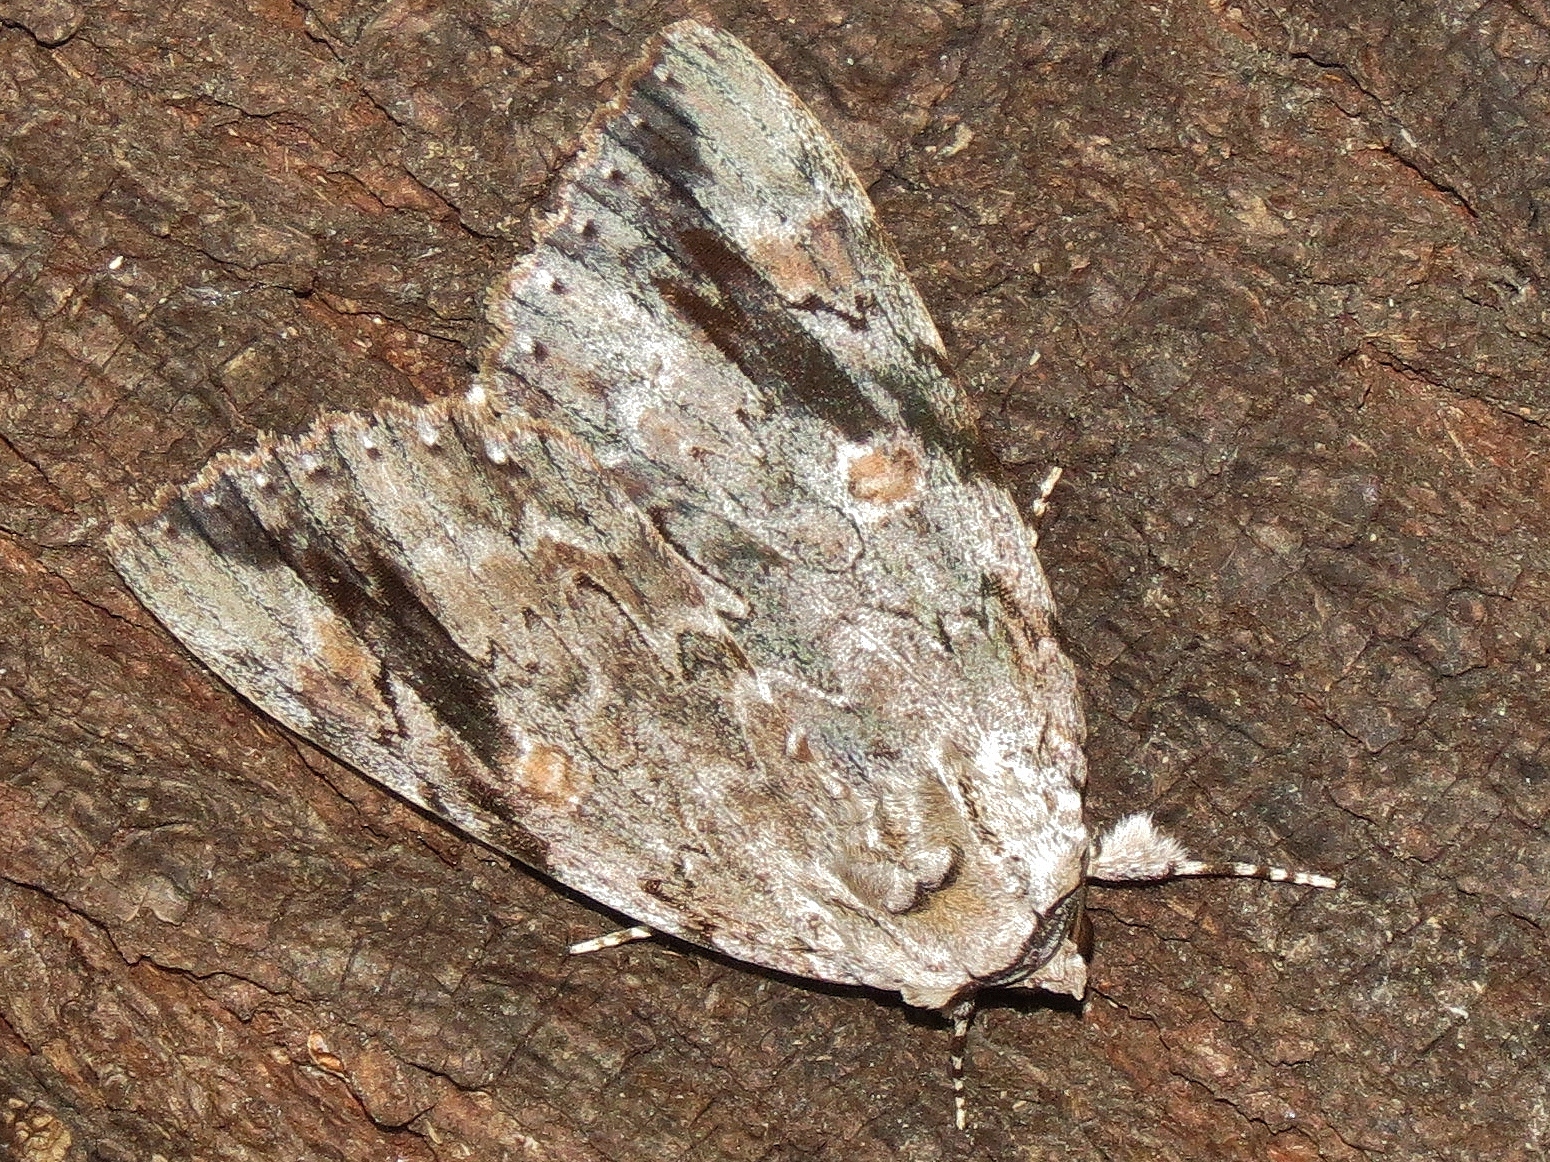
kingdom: Animalia
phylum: Arthropoda
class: Insecta
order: Lepidoptera
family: Erebidae
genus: Catocala
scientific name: Catocala maestosa
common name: Sad underwing
